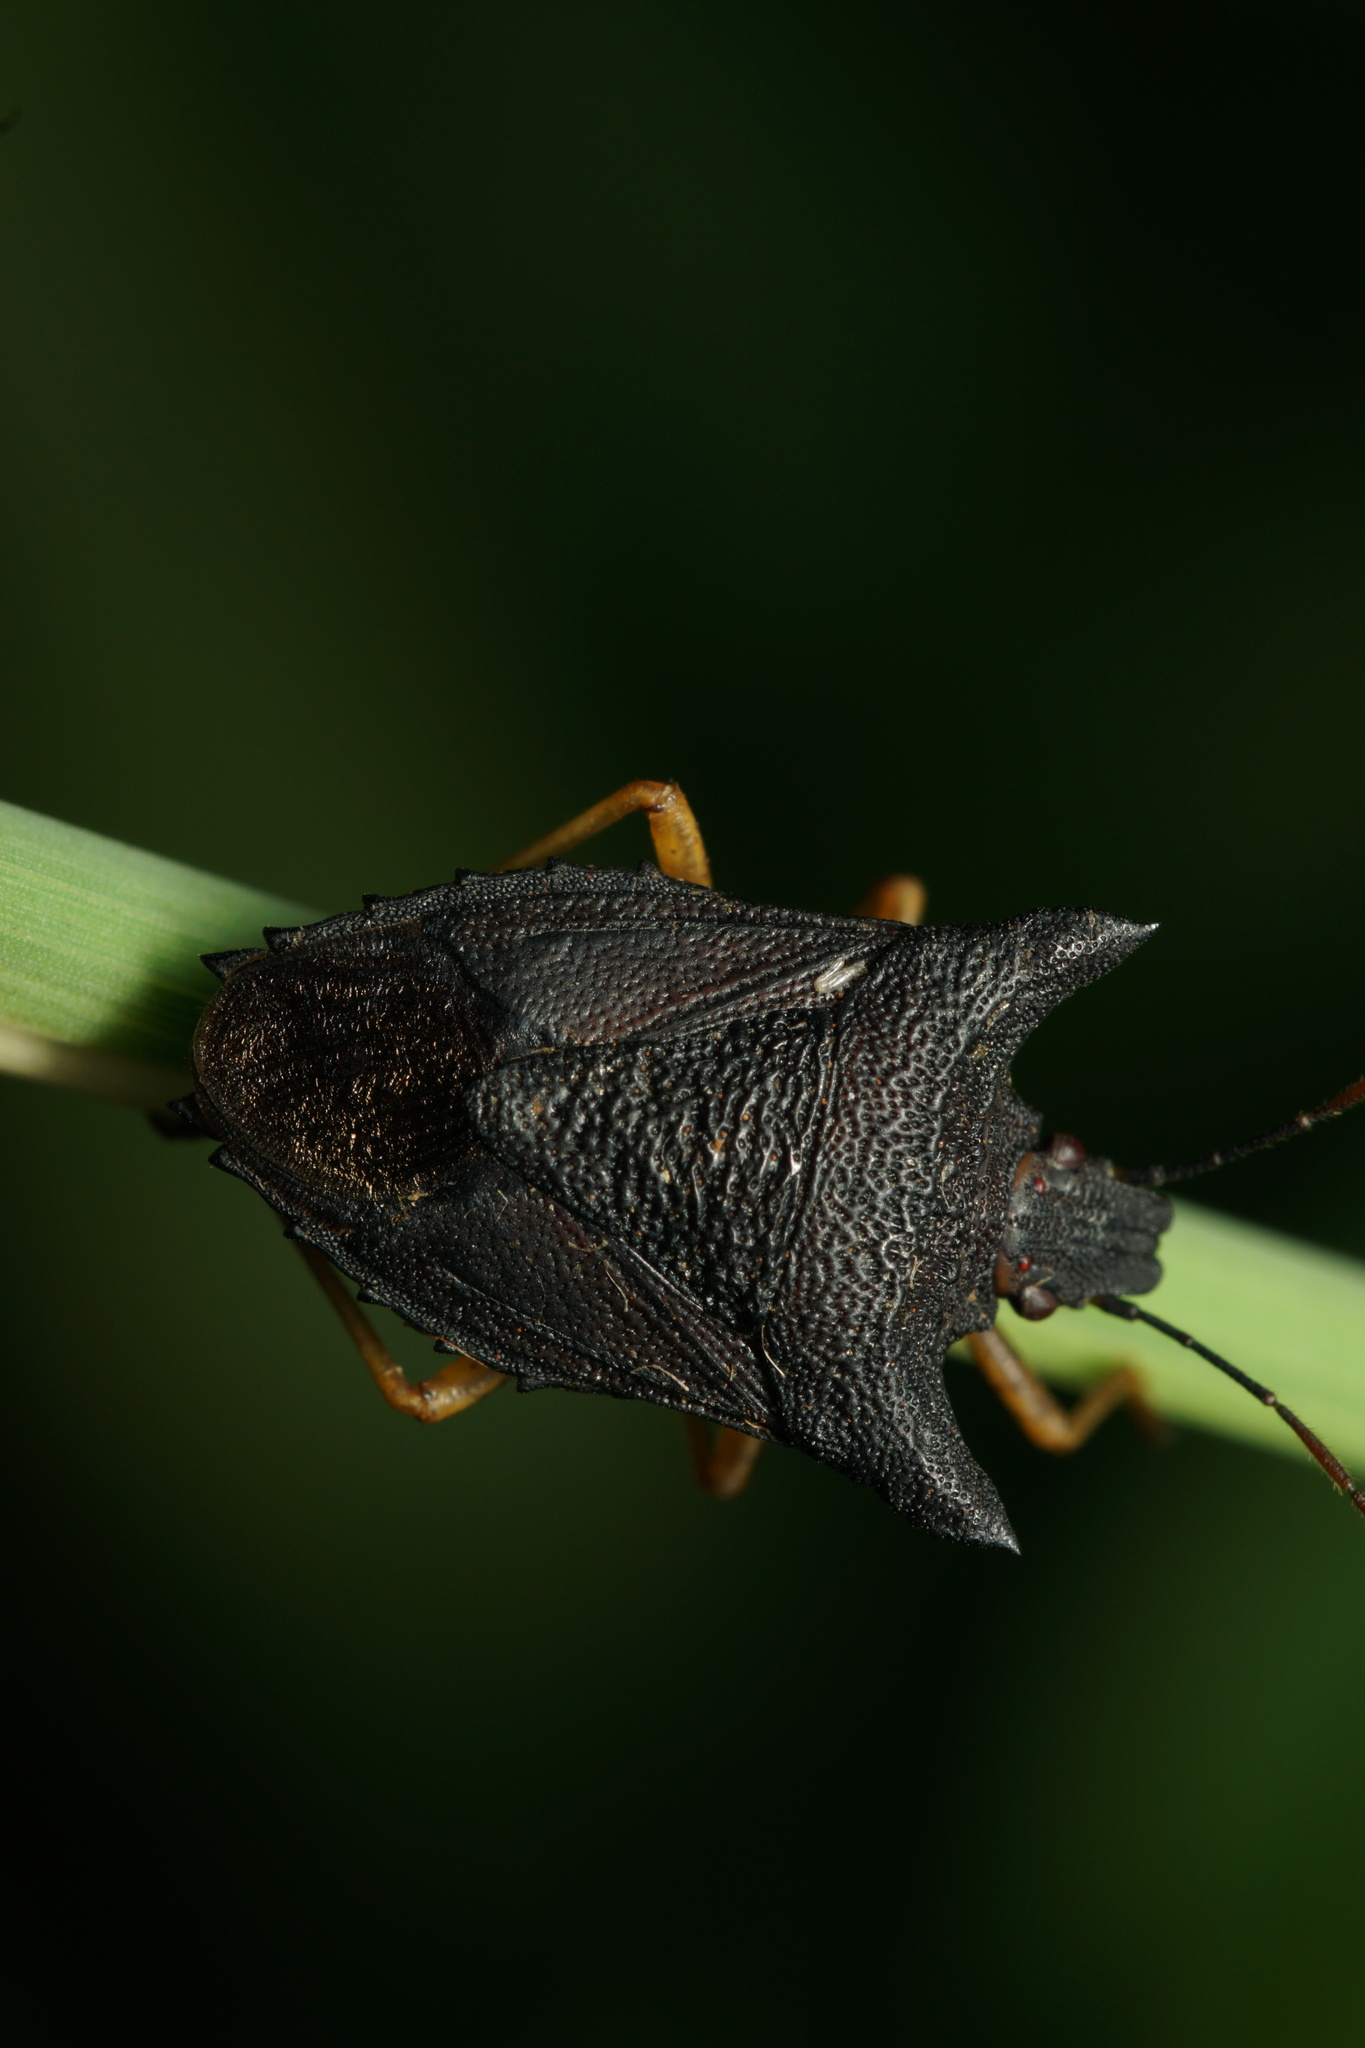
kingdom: Animalia
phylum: Arthropoda
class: Insecta
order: Hemiptera
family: Pentatomidae
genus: Caonabo
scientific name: Caonabo pseudoscylax
